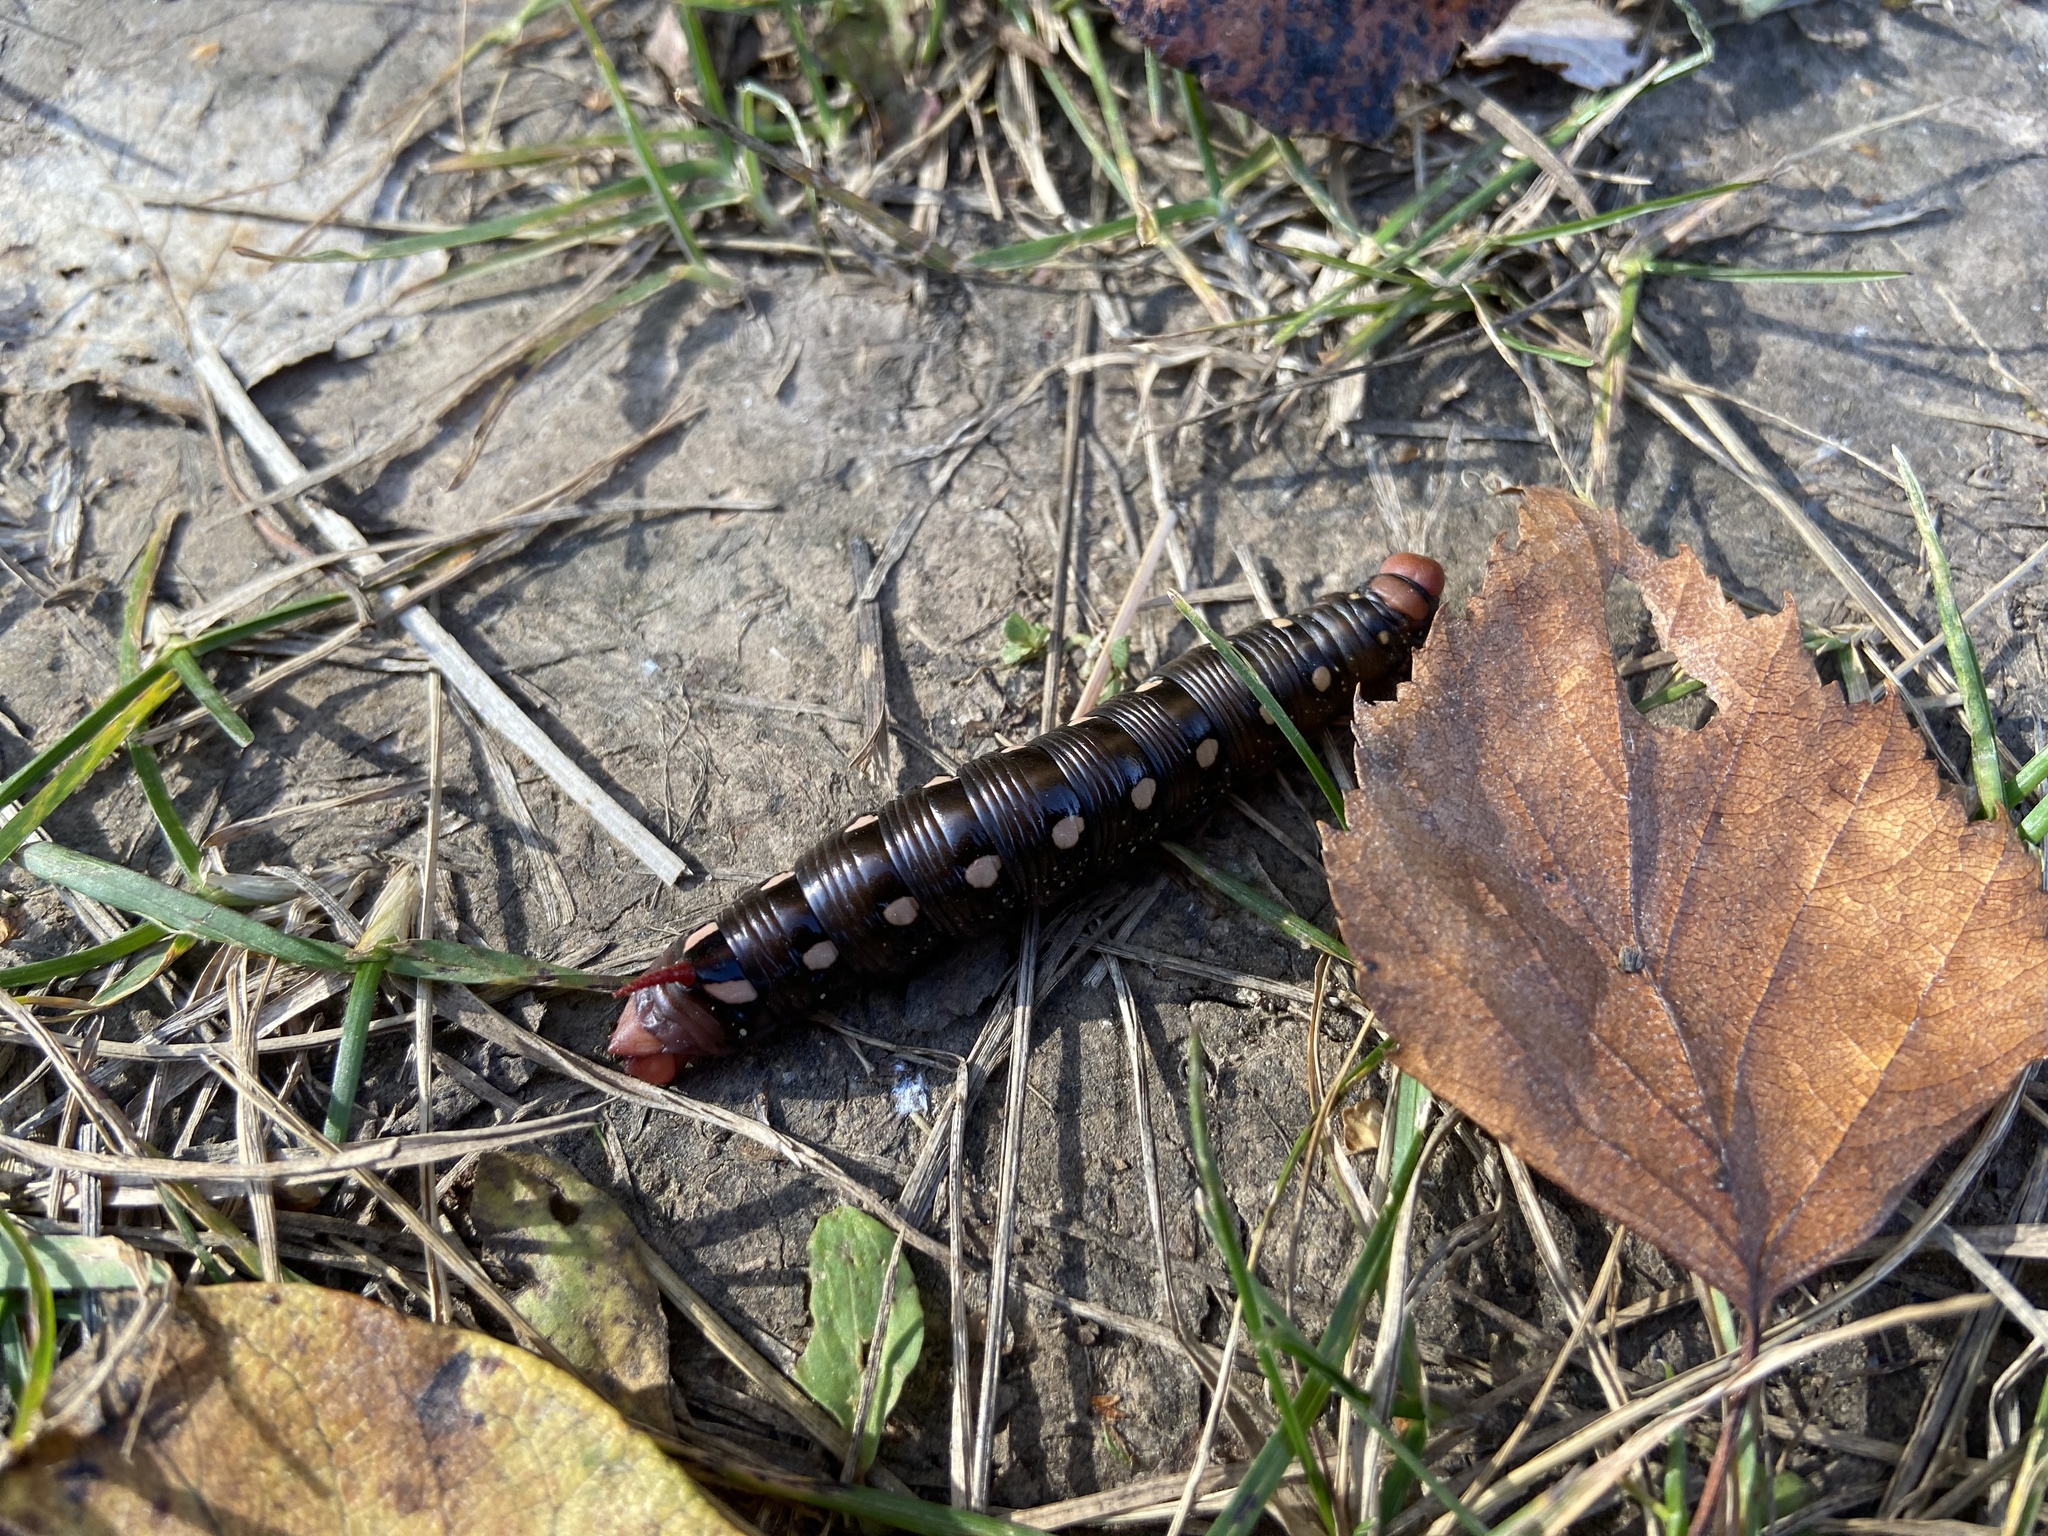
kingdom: Animalia
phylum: Arthropoda
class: Insecta
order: Lepidoptera
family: Sphingidae
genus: Hyles
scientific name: Hyles gallii
